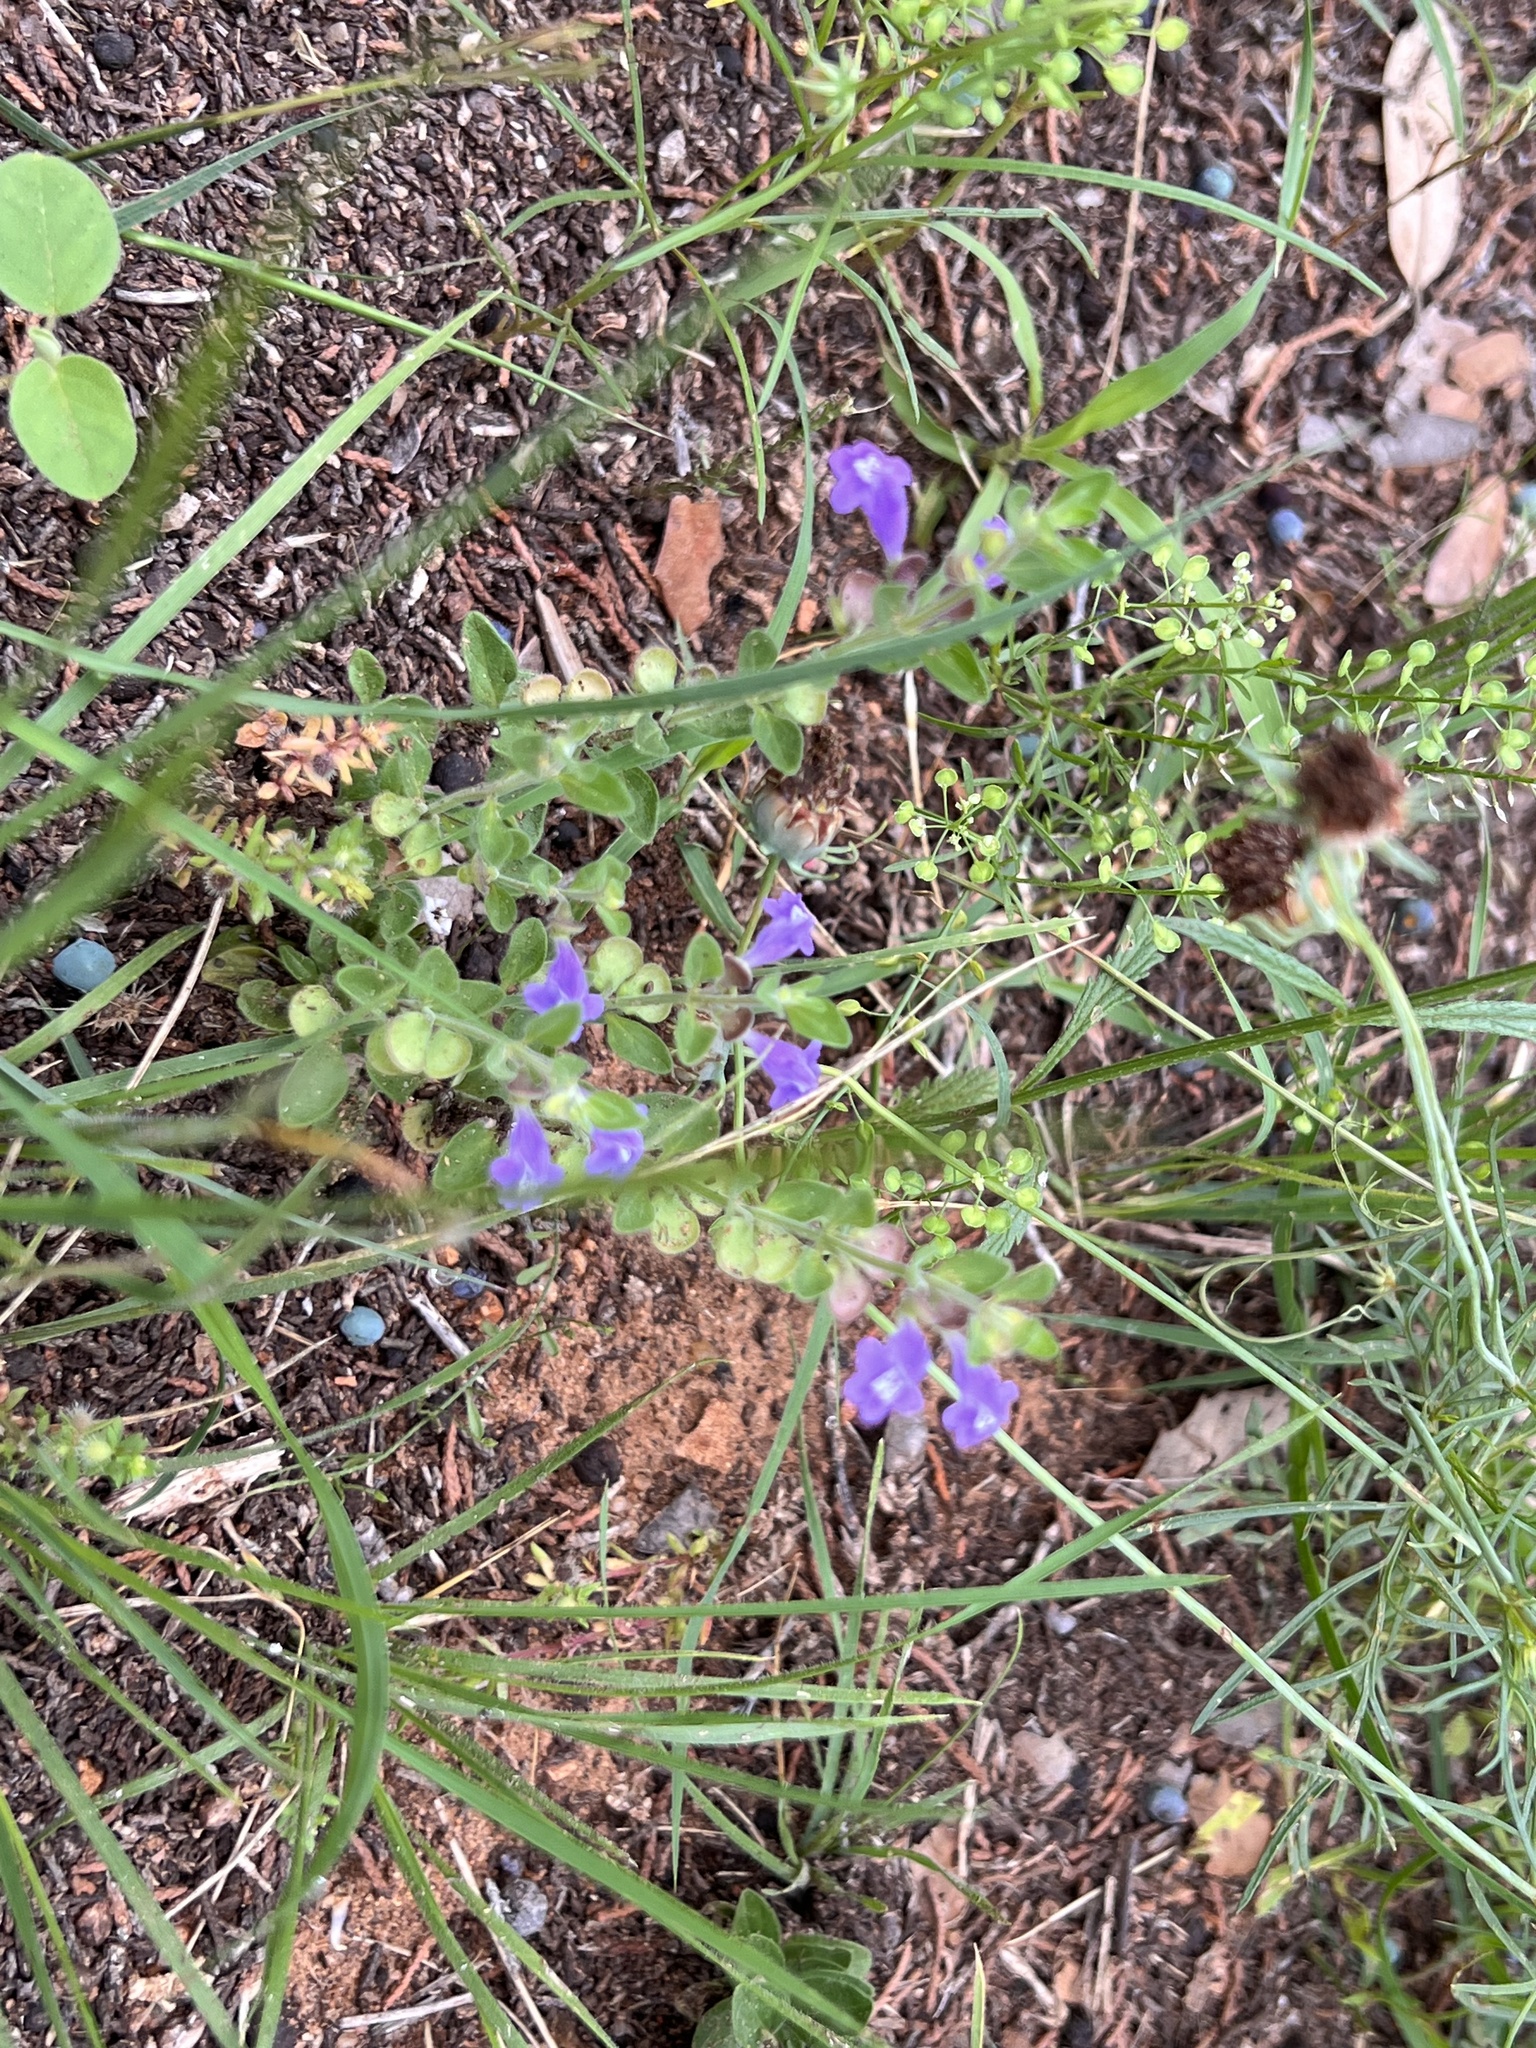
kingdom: Plantae
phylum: Tracheophyta
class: Magnoliopsida
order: Lamiales
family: Lamiaceae
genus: Scutellaria
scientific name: Scutellaria drummondii
